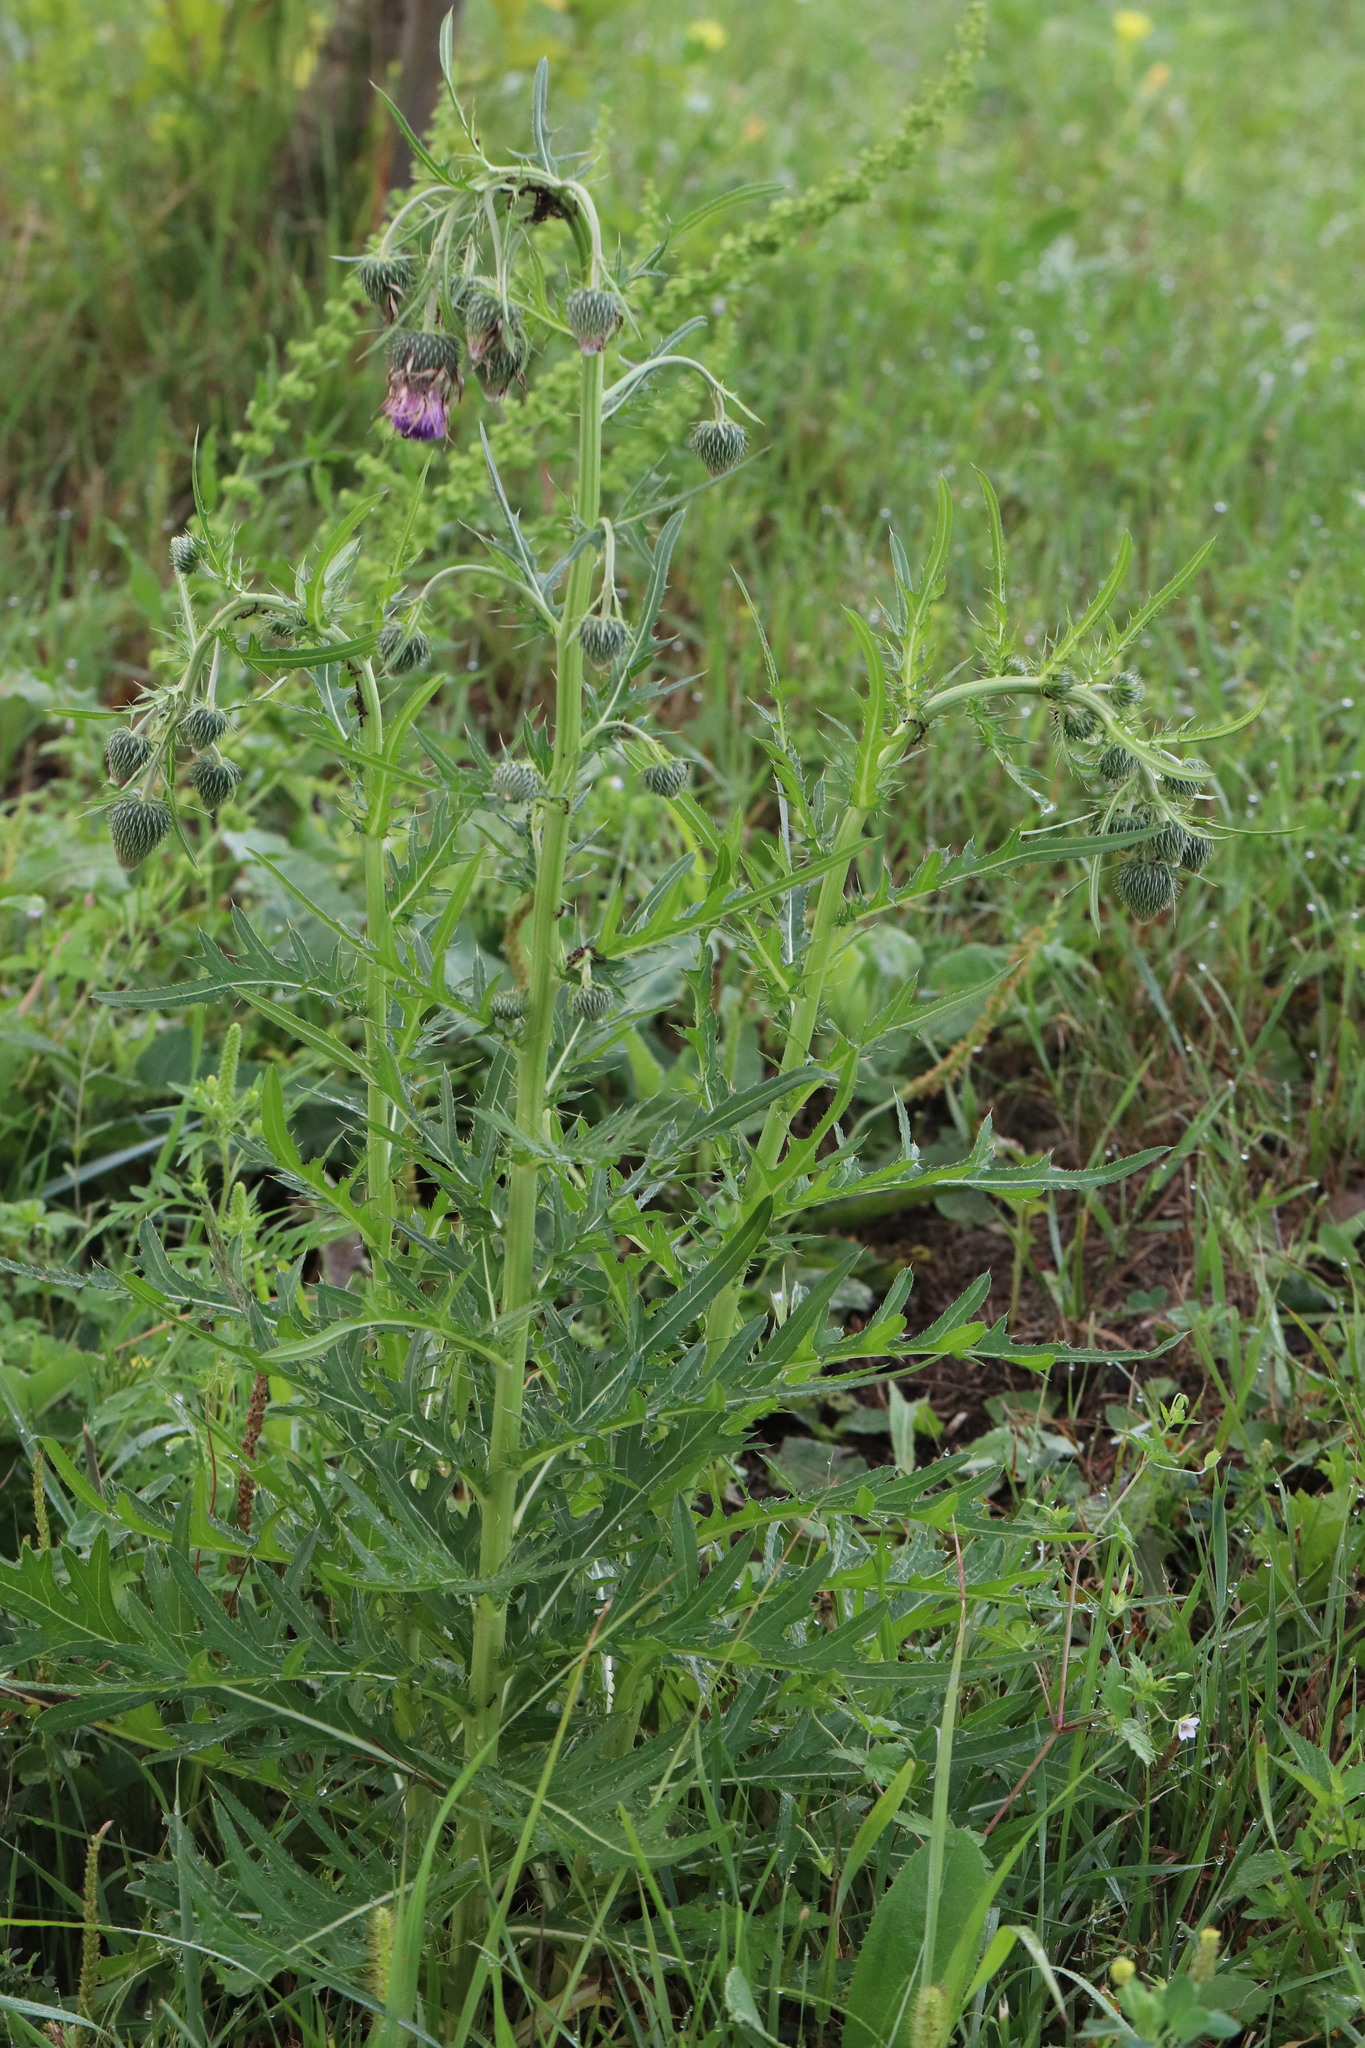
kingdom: Plantae
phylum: Tracheophyta
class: Magnoliopsida
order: Asterales
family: Asteraceae
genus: Cirsium
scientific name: Cirsium pendulum
